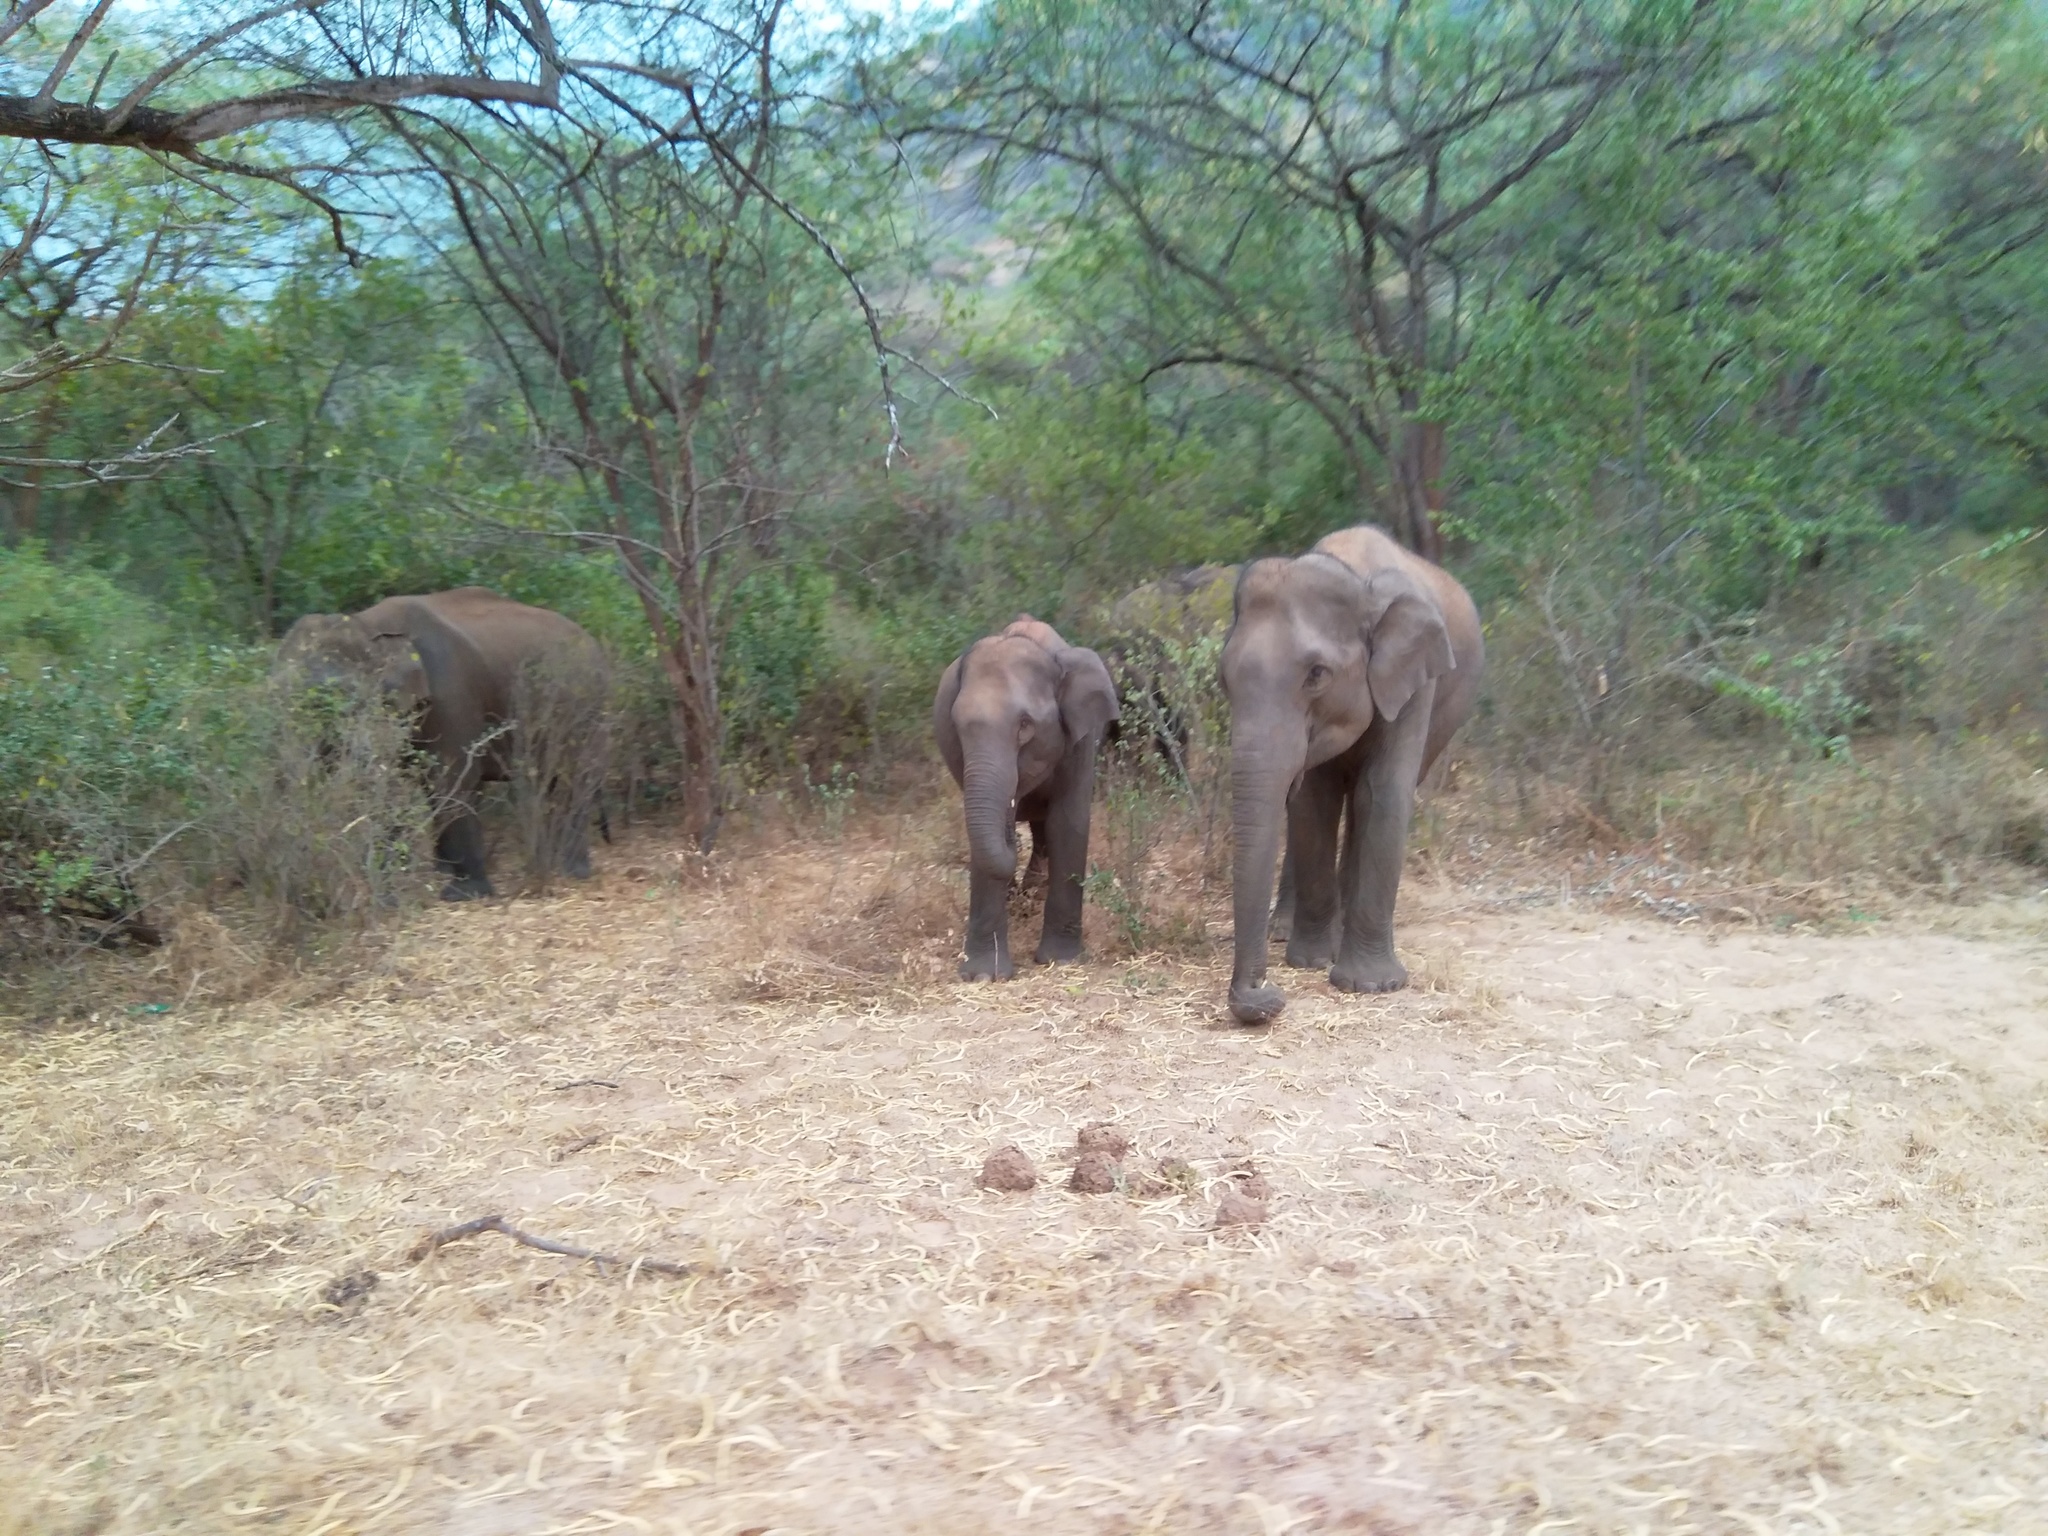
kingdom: Animalia
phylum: Chordata
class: Mammalia
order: Proboscidea
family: Elephantidae
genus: Elephas
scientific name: Elephas maximus
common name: Asian elephant
